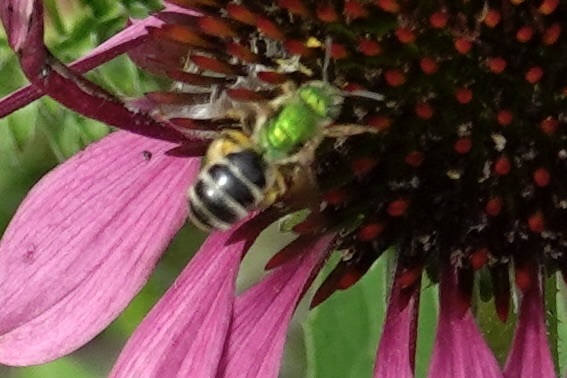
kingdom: Animalia
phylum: Arthropoda
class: Insecta
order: Hymenoptera
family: Halictidae
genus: Agapostemon
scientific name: Agapostemon virescens
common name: Bicolored striped sweat bee
